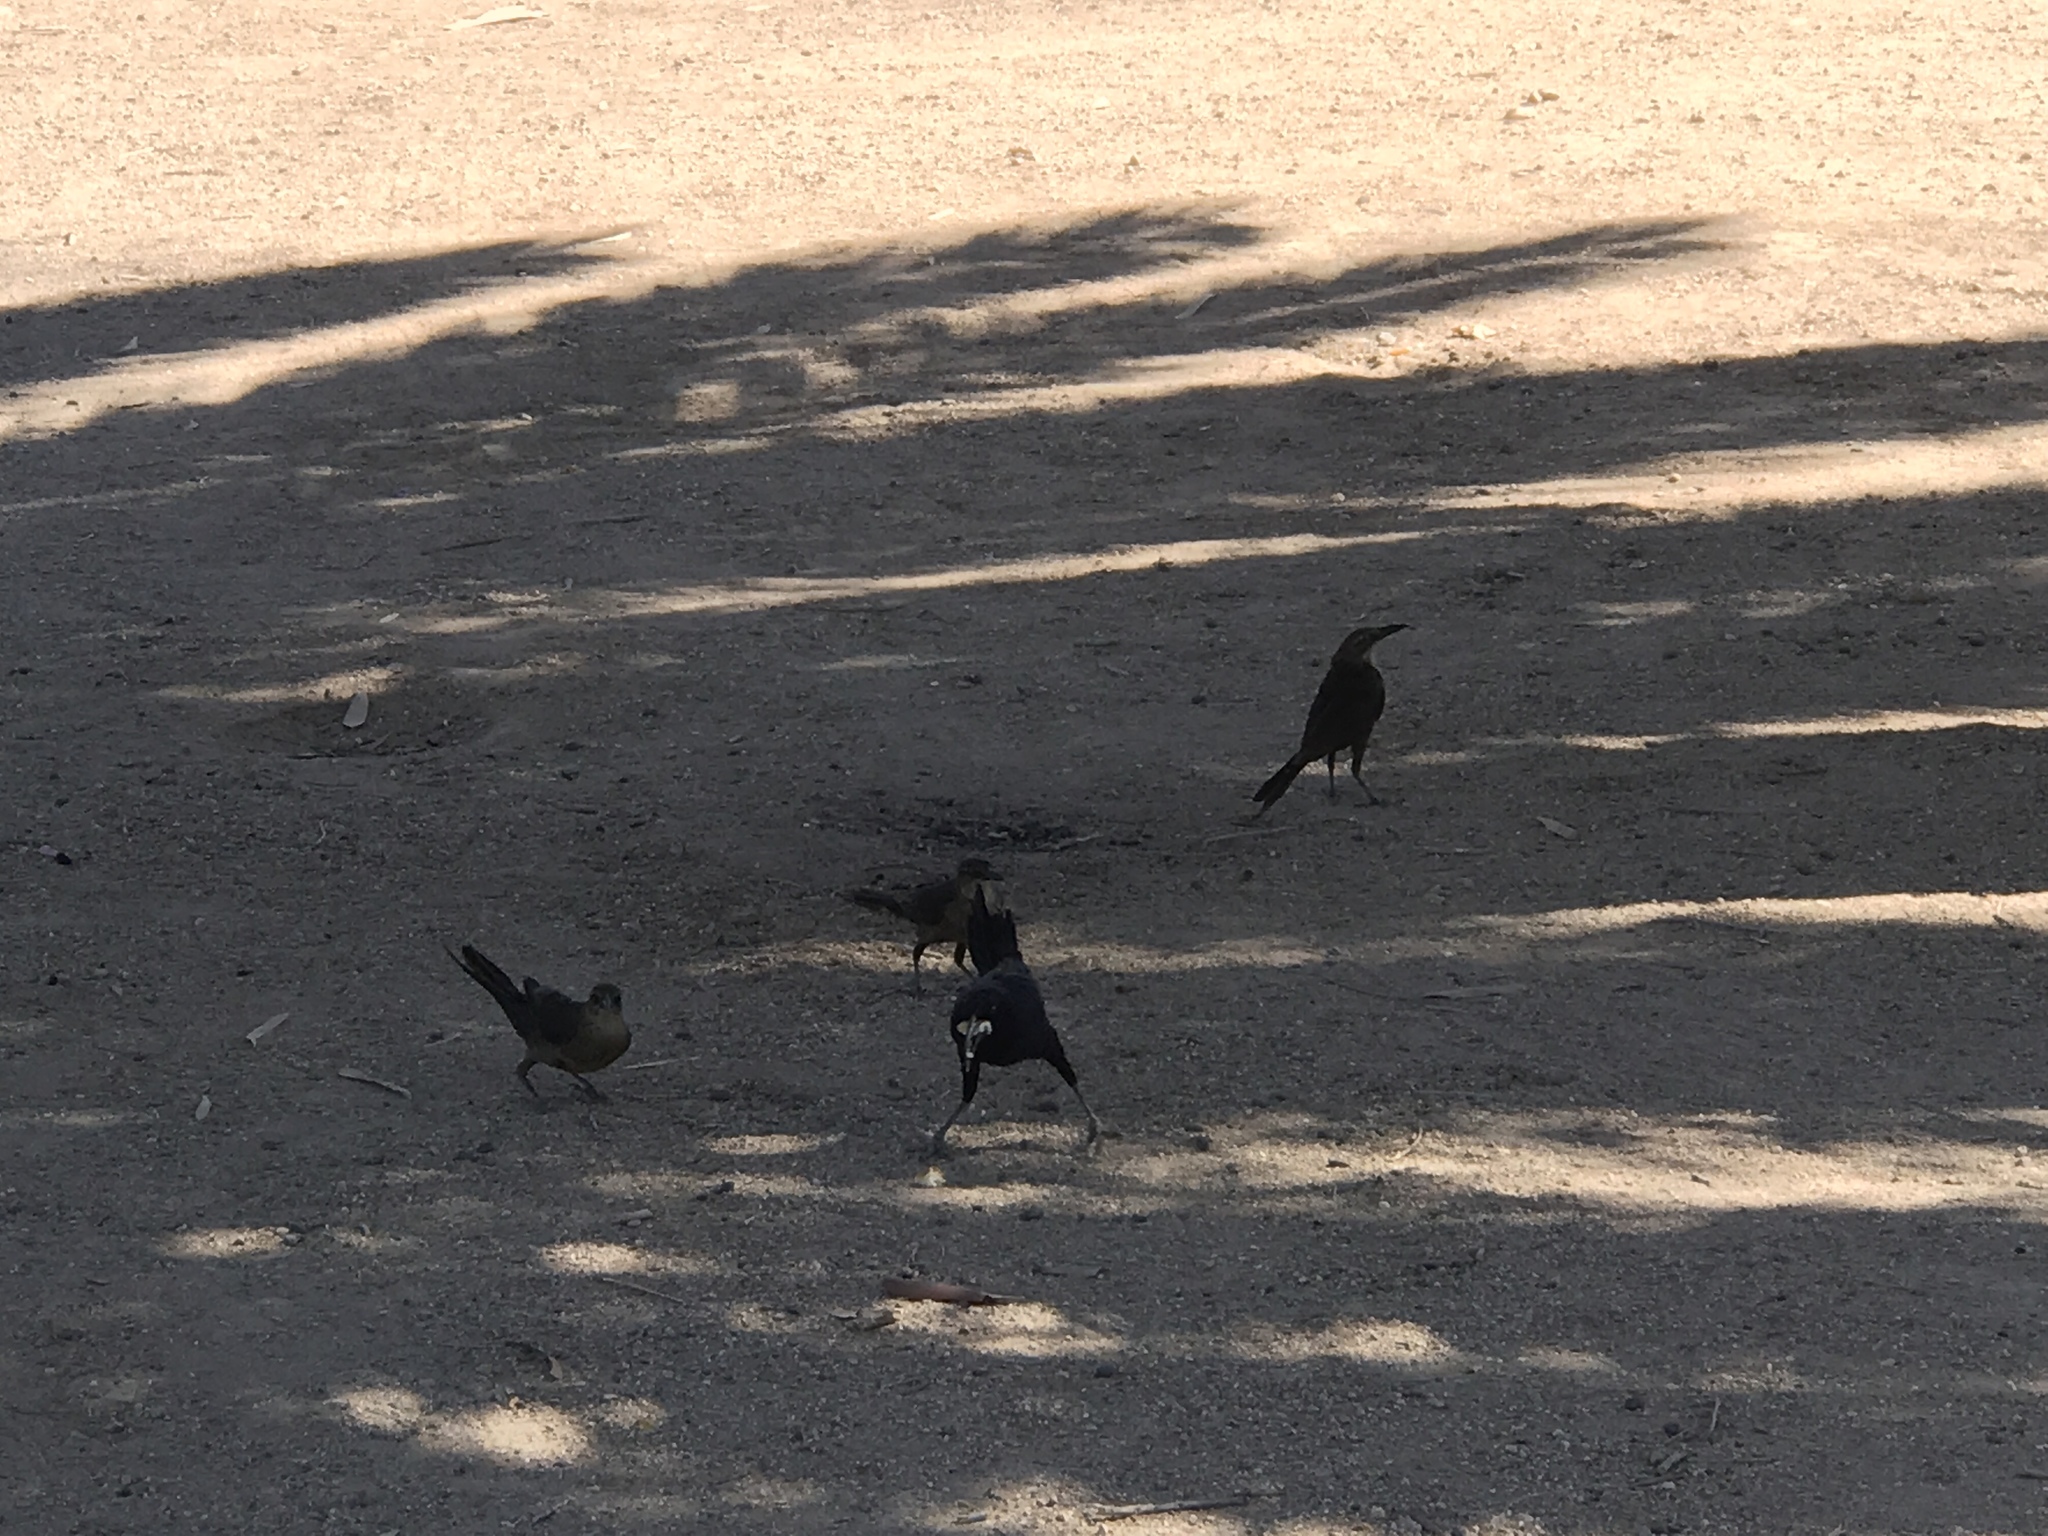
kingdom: Animalia
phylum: Chordata
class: Aves
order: Passeriformes
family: Icteridae
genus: Quiscalus
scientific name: Quiscalus mexicanus
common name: Great-tailed grackle
